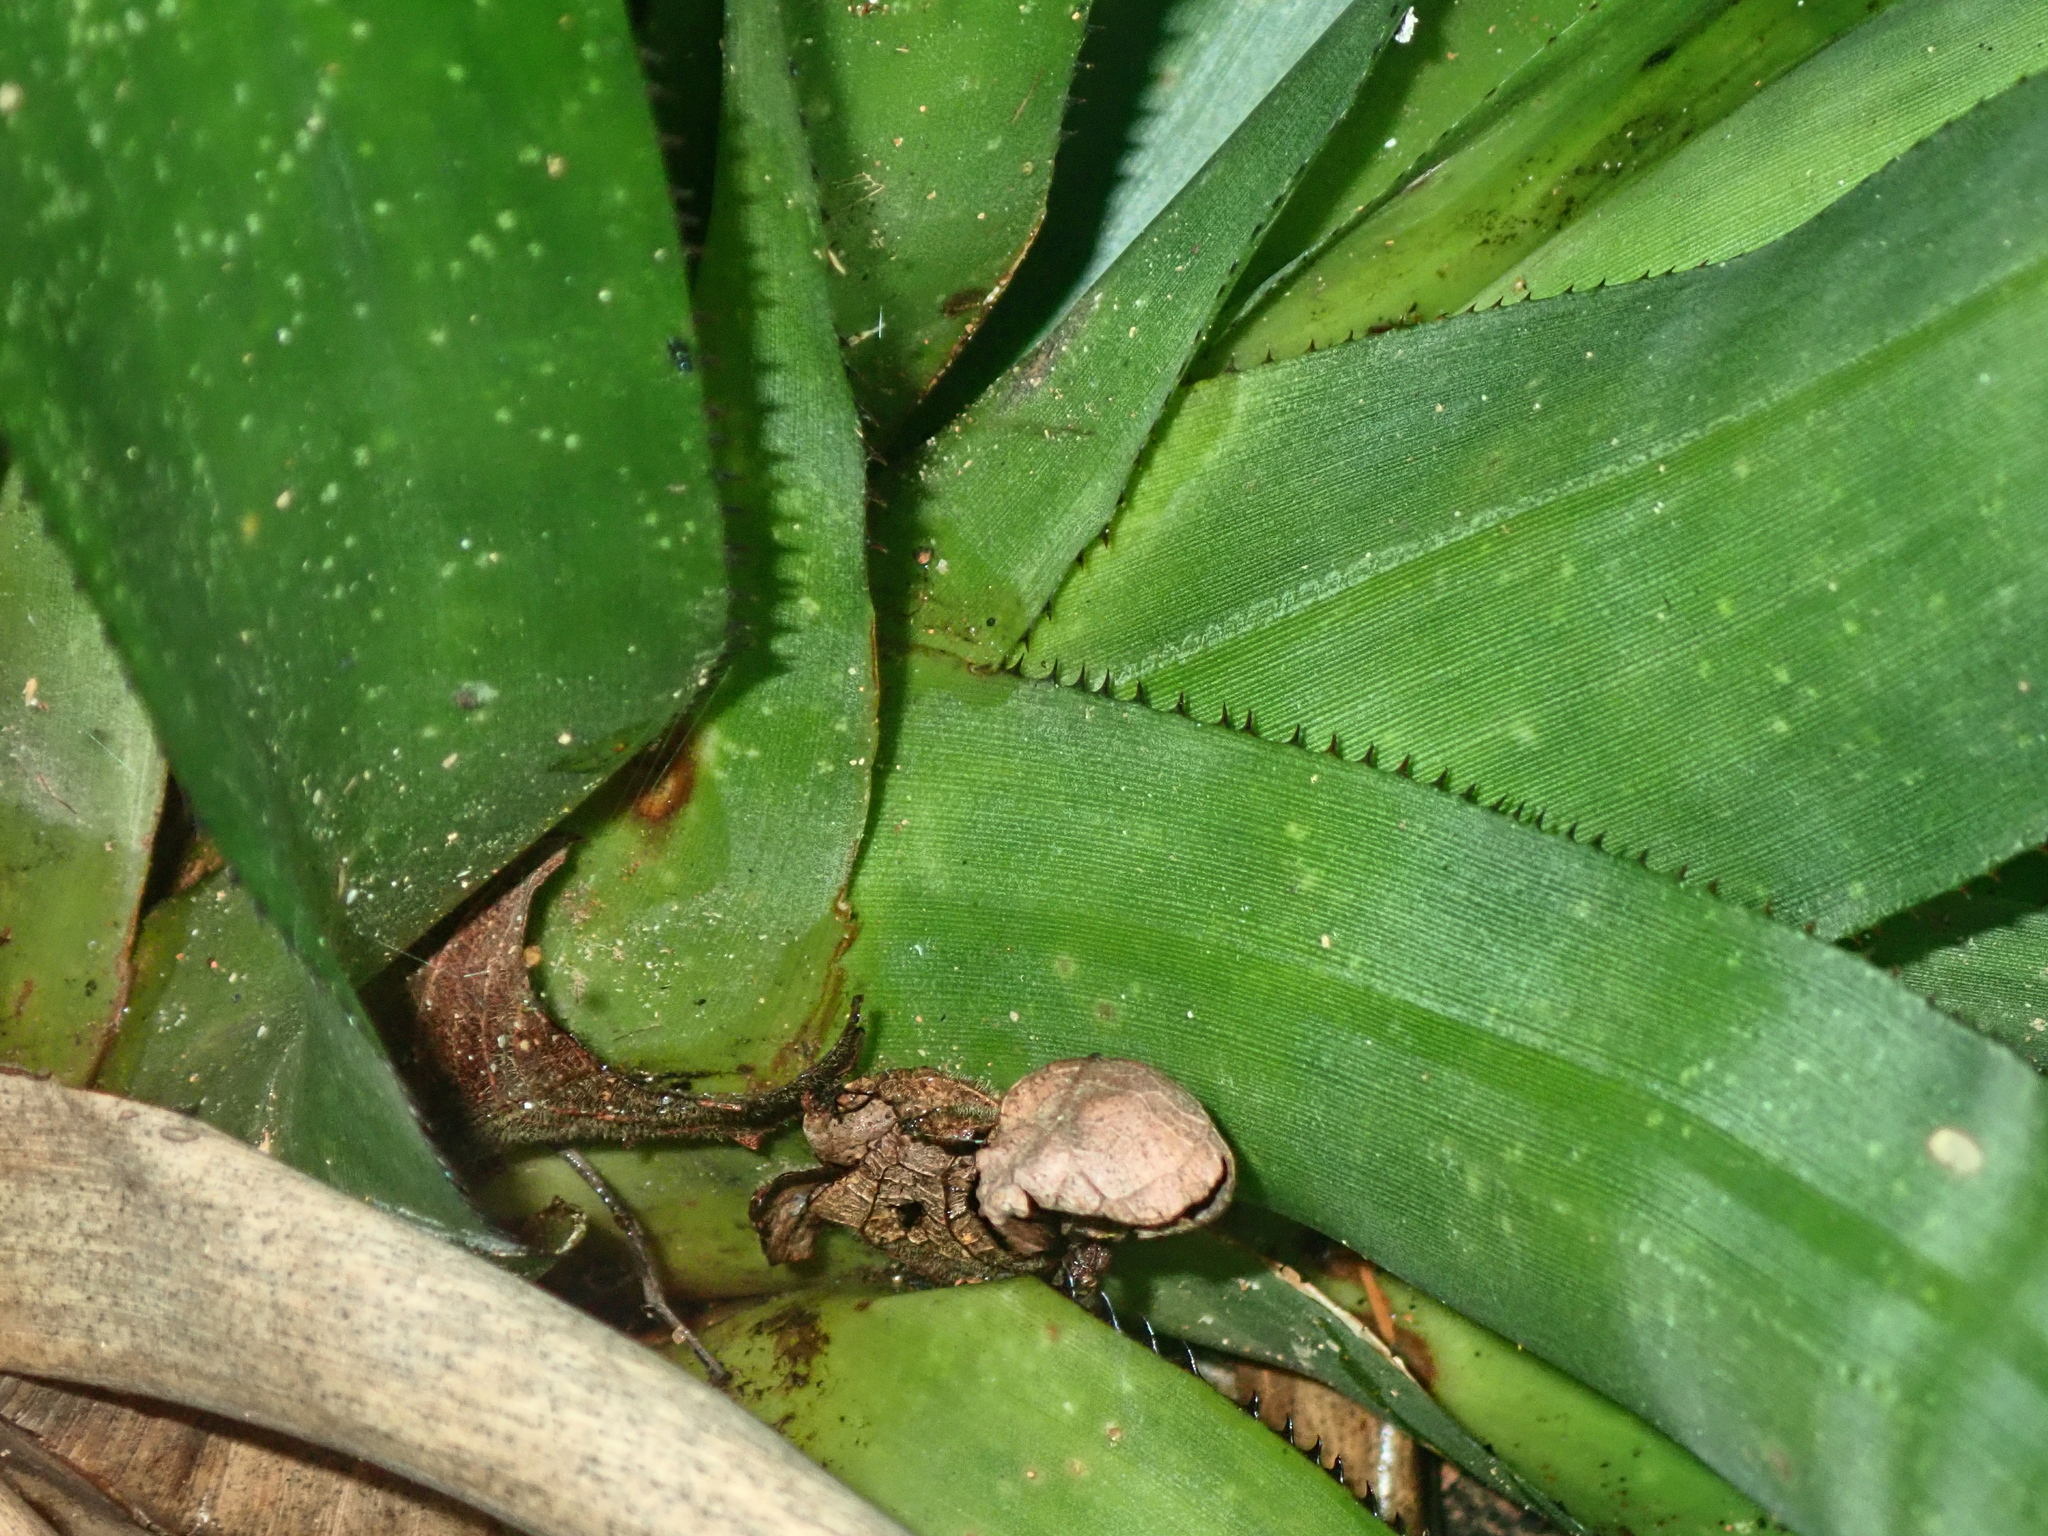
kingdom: Plantae
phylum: Tracheophyta
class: Liliopsida
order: Poales
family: Bromeliaceae
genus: Aechmea
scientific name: Aechmea ornata
